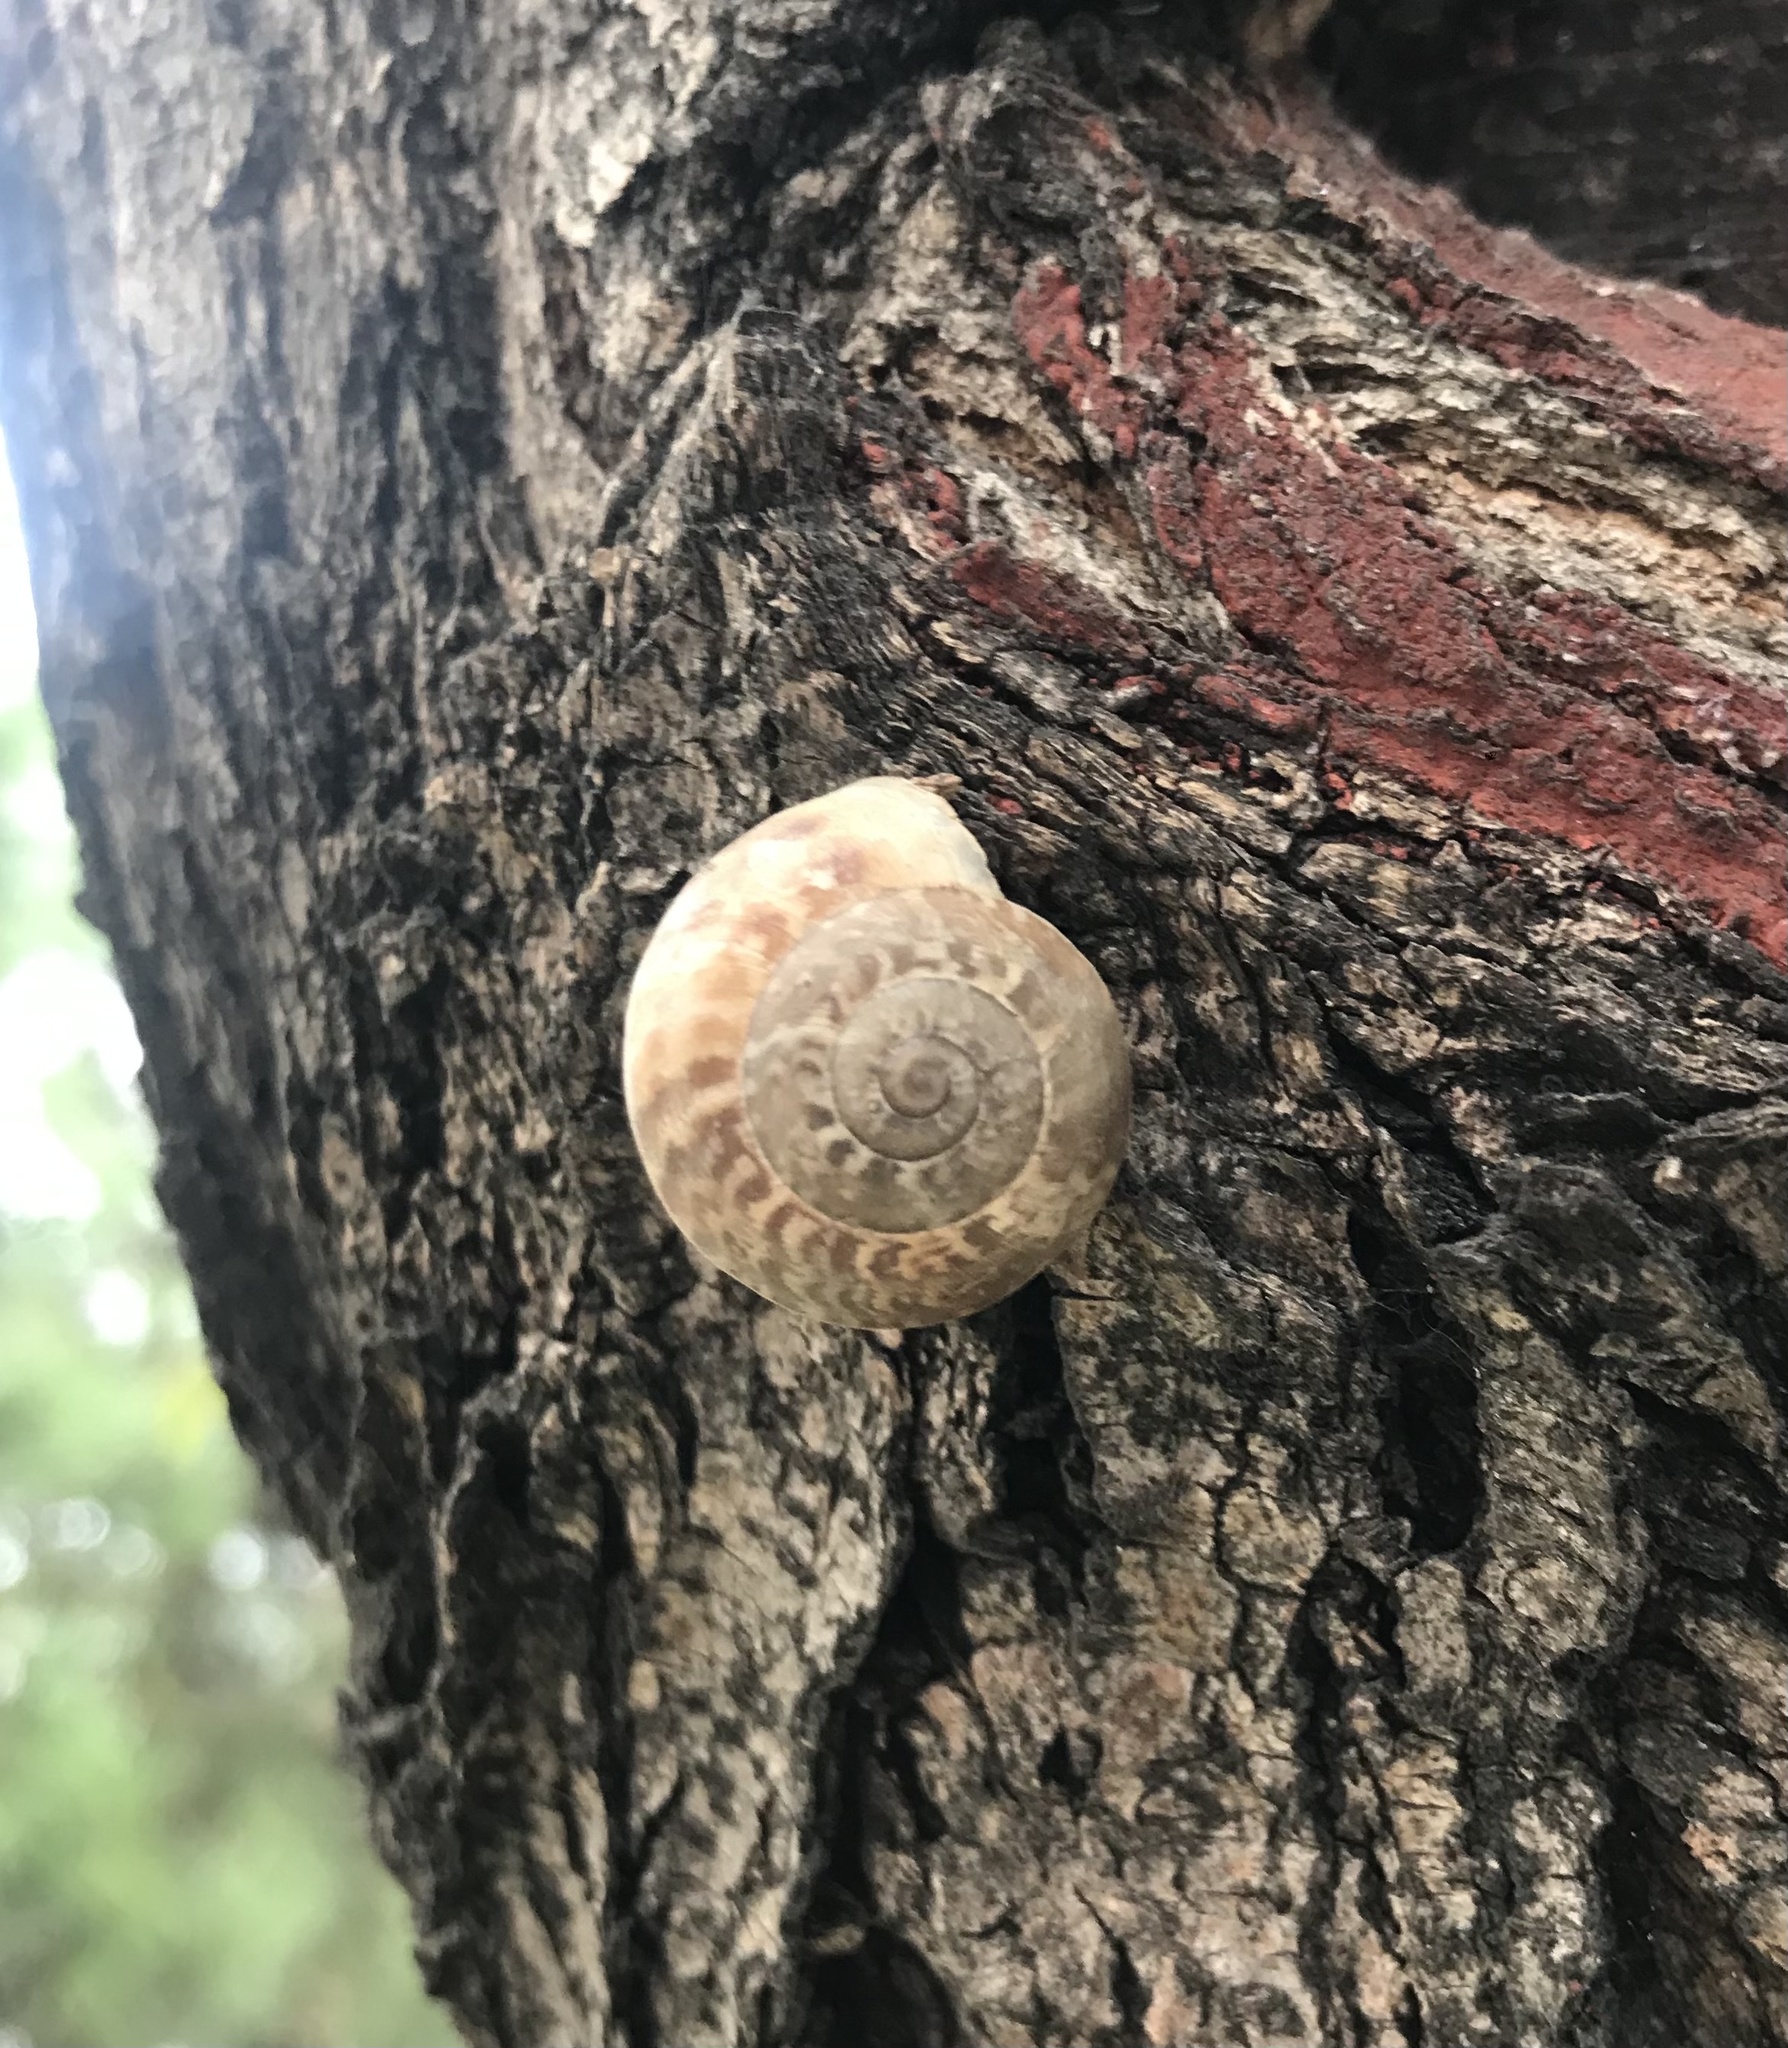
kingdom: Animalia
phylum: Mollusca
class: Gastropoda
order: Stylommatophora
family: Helicidae
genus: Eobania
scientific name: Eobania vermiculata
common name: Chocolateband snail
